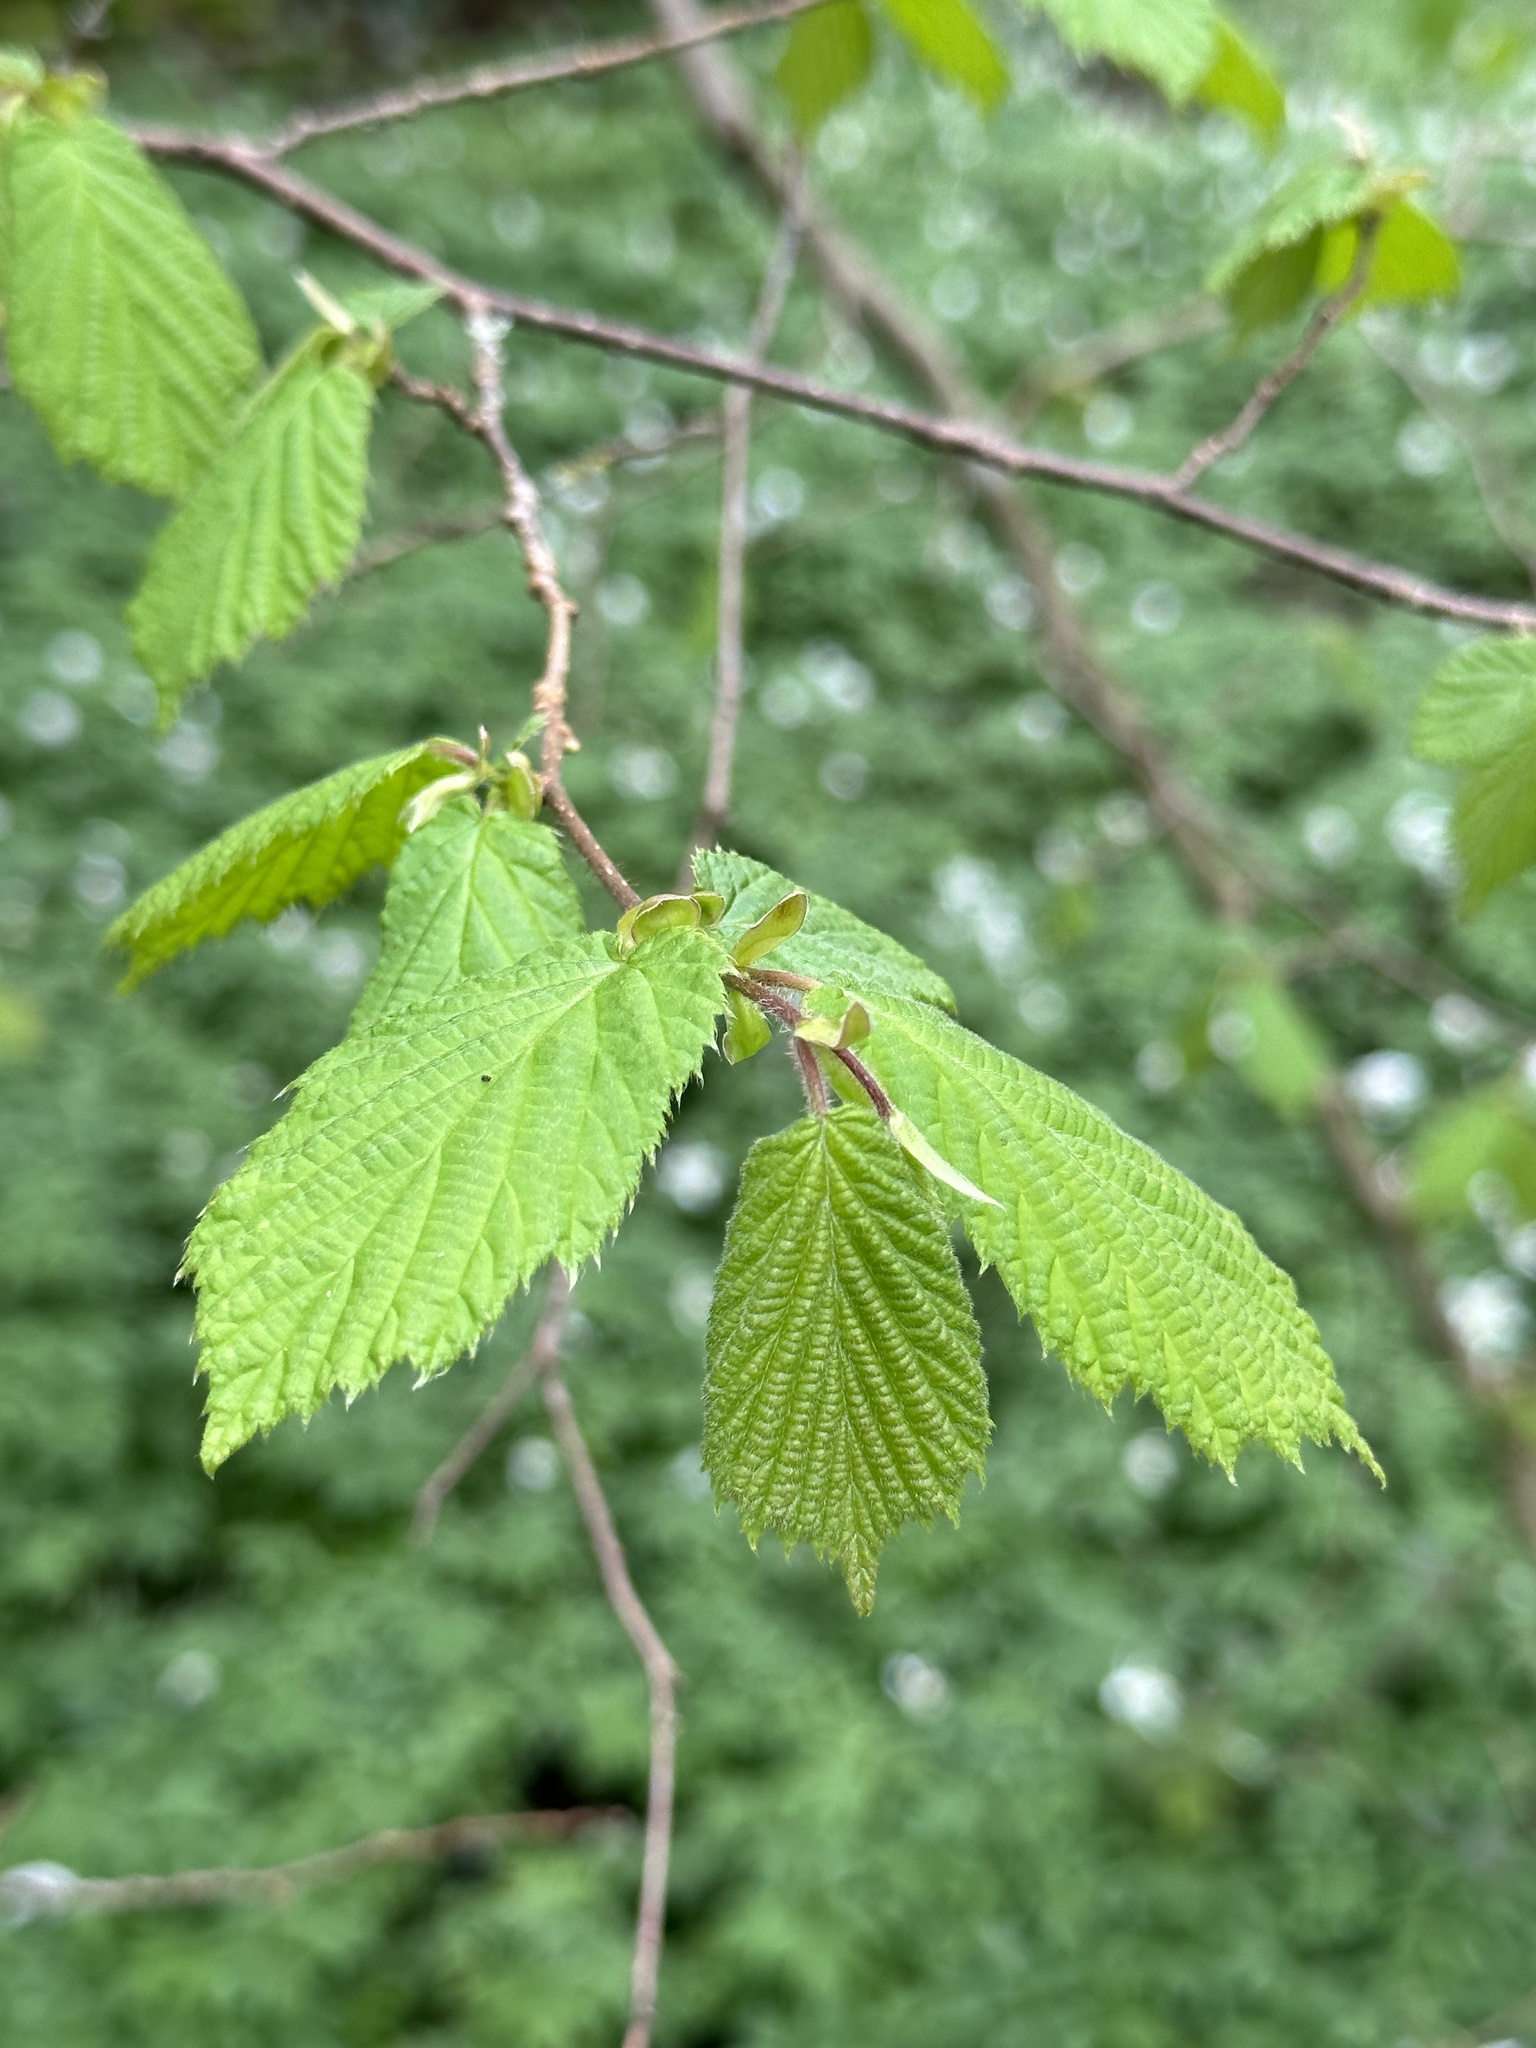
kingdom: Plantae
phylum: Tracheophyta
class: Magnoliopsida
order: Fagales
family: Betulaceae
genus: Corylus
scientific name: Corylus avellana
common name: European hazel
